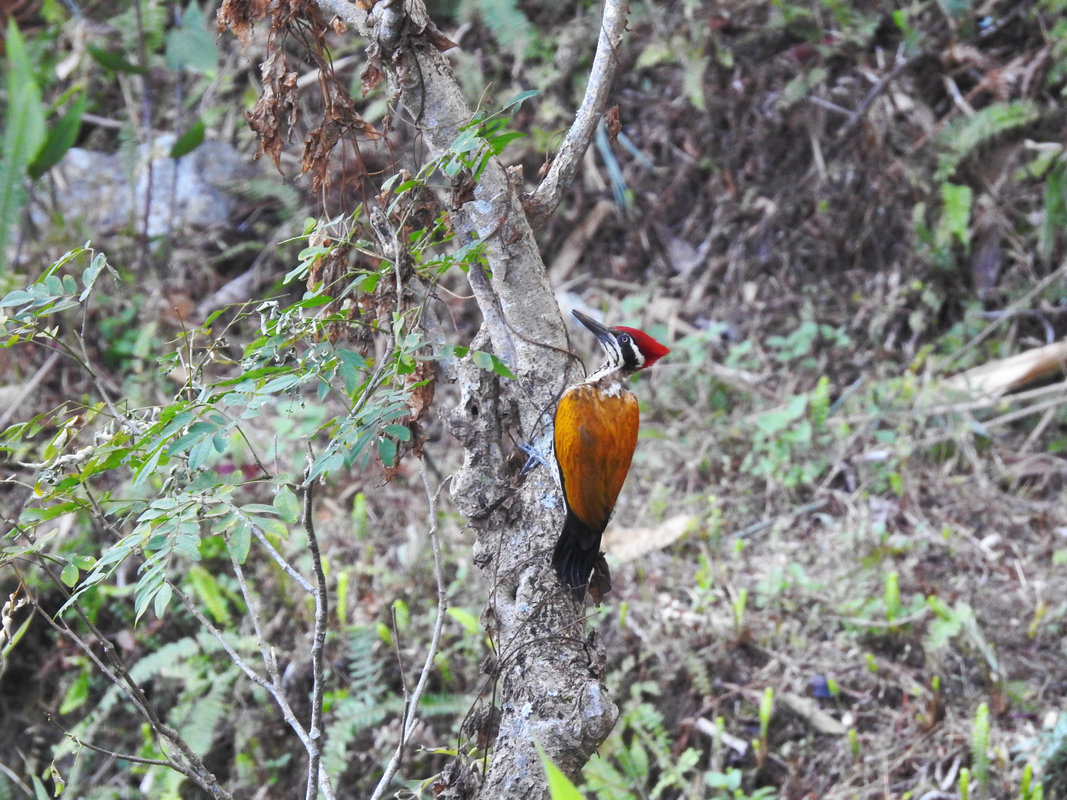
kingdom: Animalia
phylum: Chordata
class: Aves
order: Piciformes
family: Picidae
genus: Chrysocolaptes
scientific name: Chrysocolaptes guttacristatus
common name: Greater flameback
